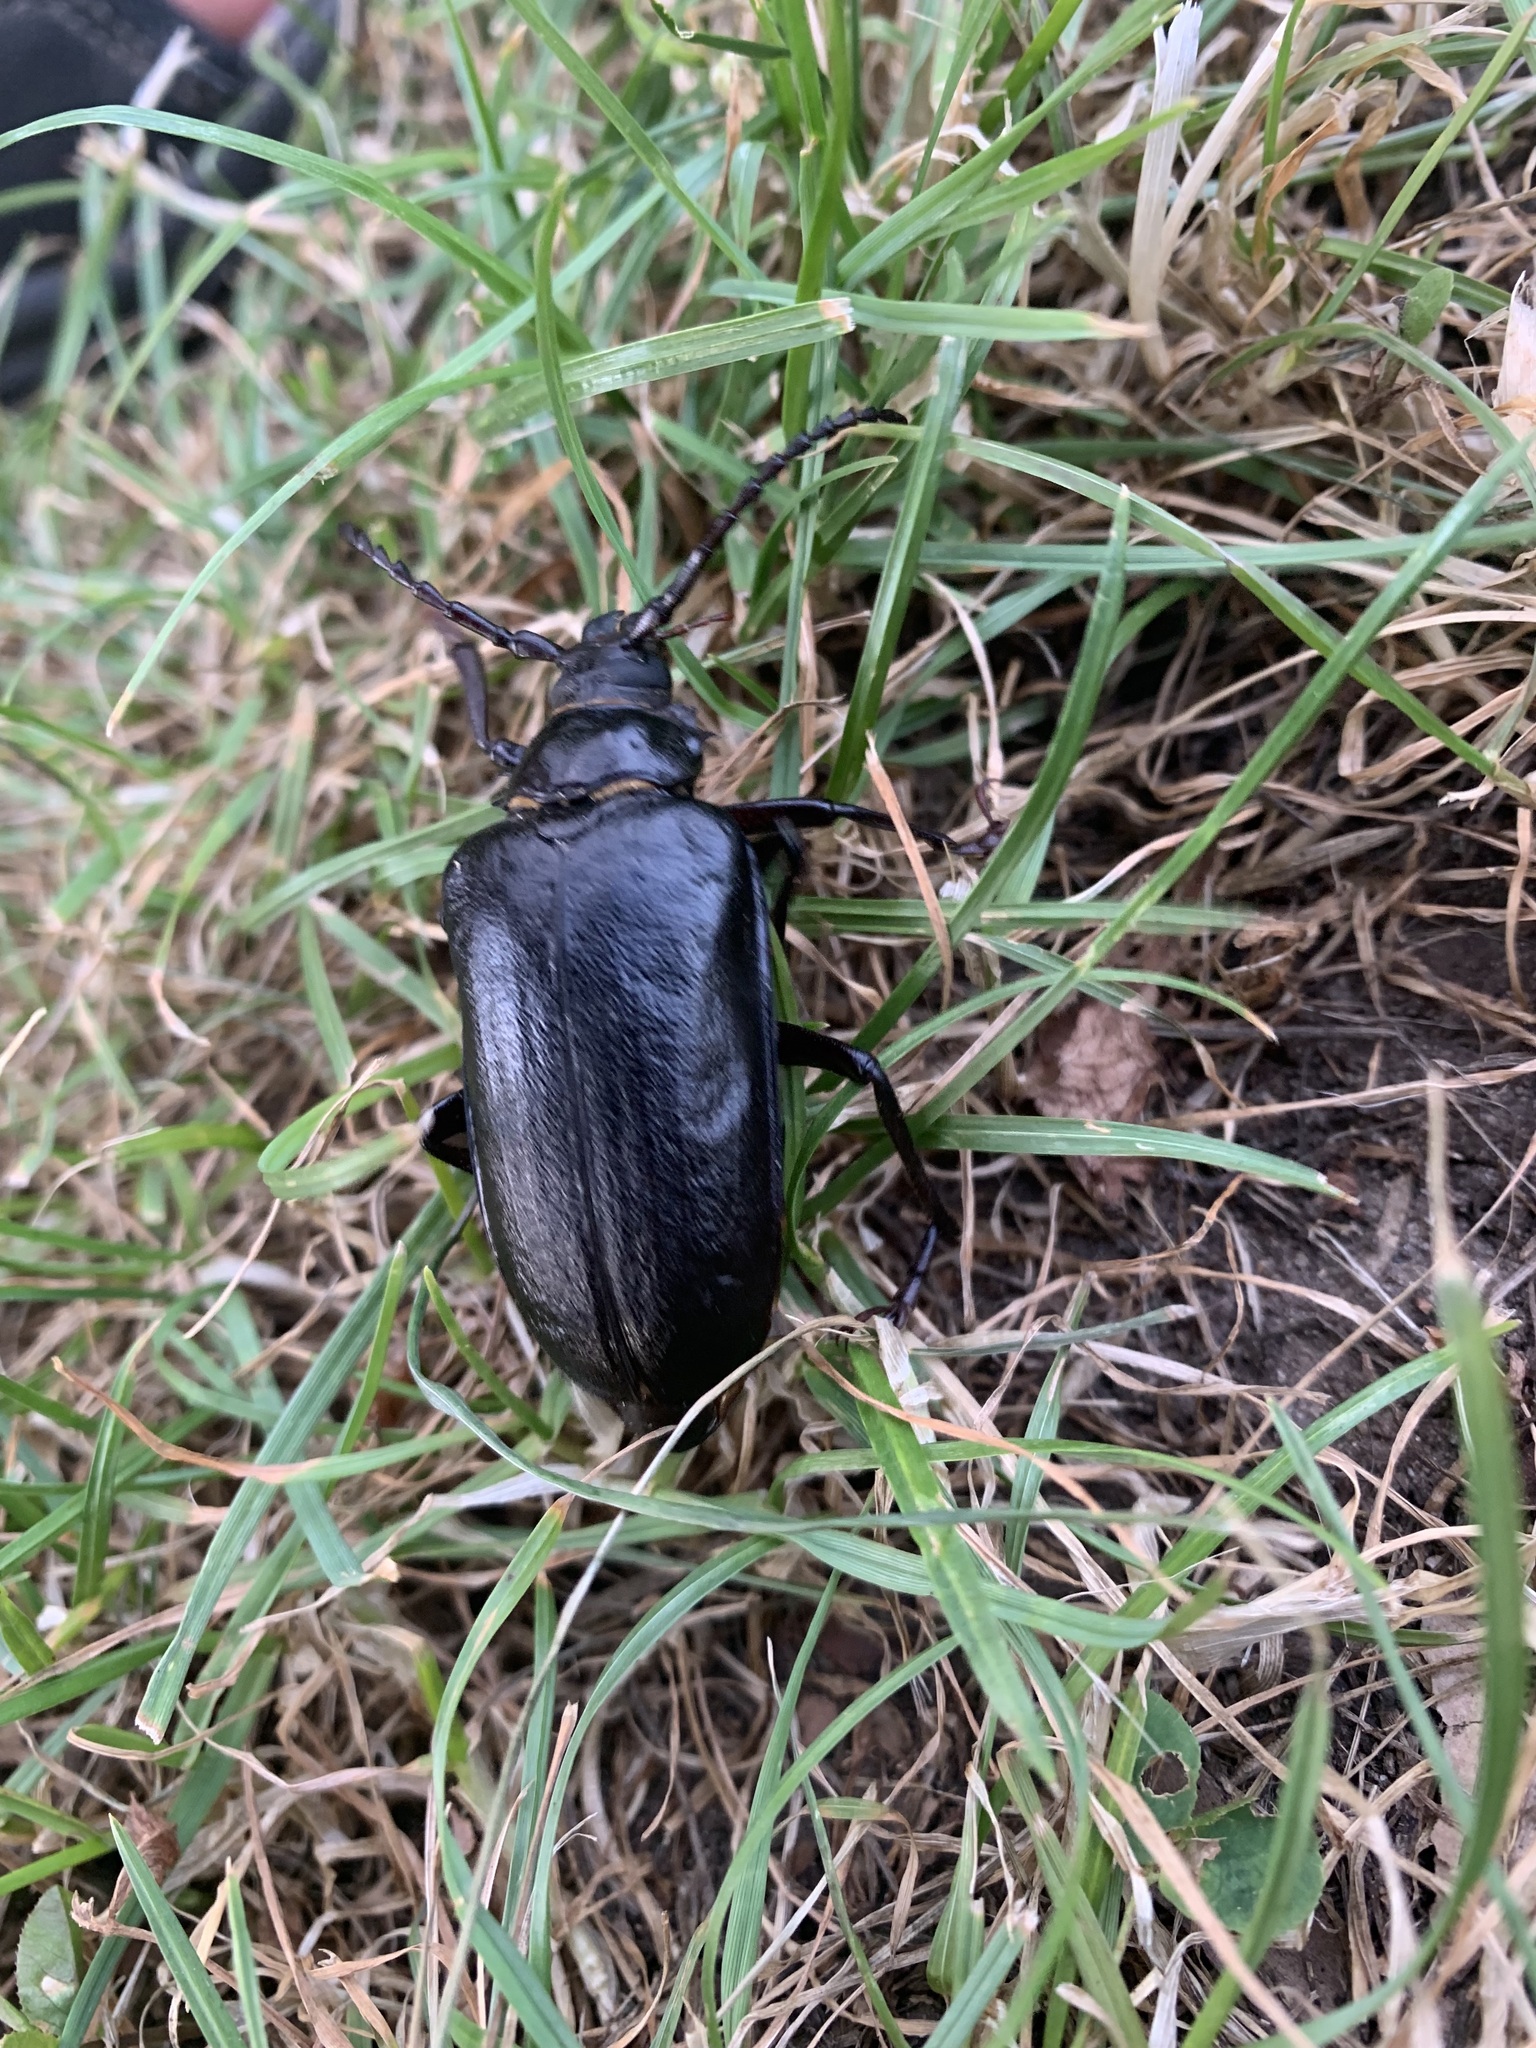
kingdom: Animalia
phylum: Arthropoda
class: Insecta
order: Coleoptera
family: Cerambycidae
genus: Prionus
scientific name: Prionus coriarius
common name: Tanner beetle
